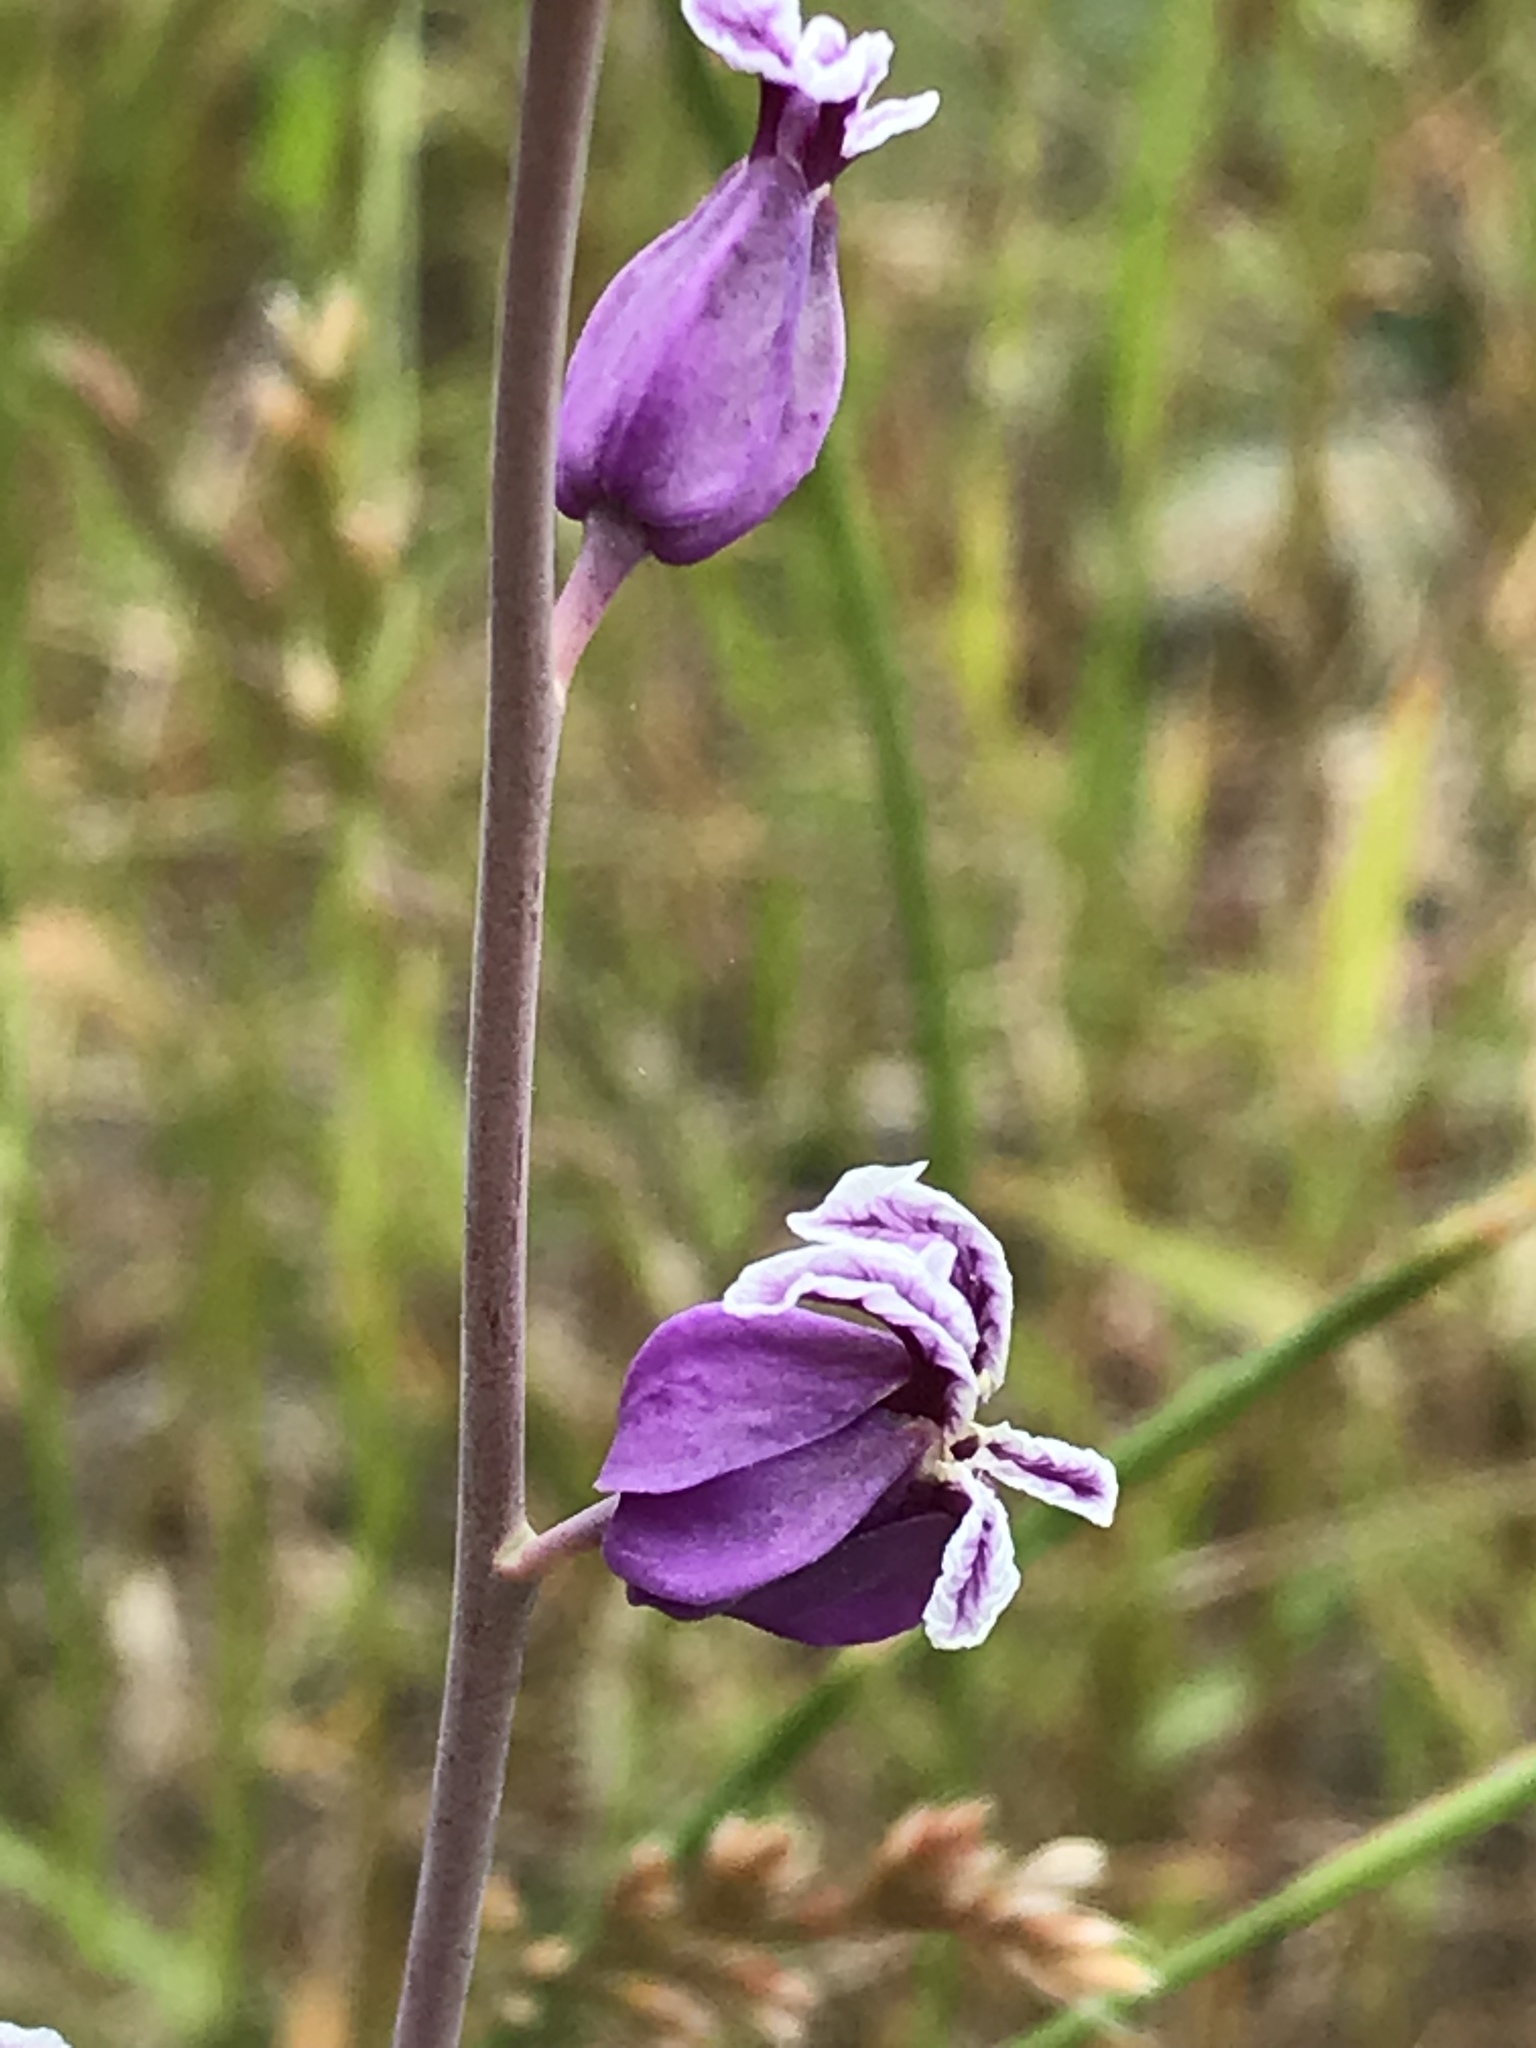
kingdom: Plantae
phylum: Tracheophyta
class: Magnoliopsida
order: Brassicales
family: Brassicaceae
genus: Streptanthus
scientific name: Streptanthus glandulosus
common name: Jewel-flower
